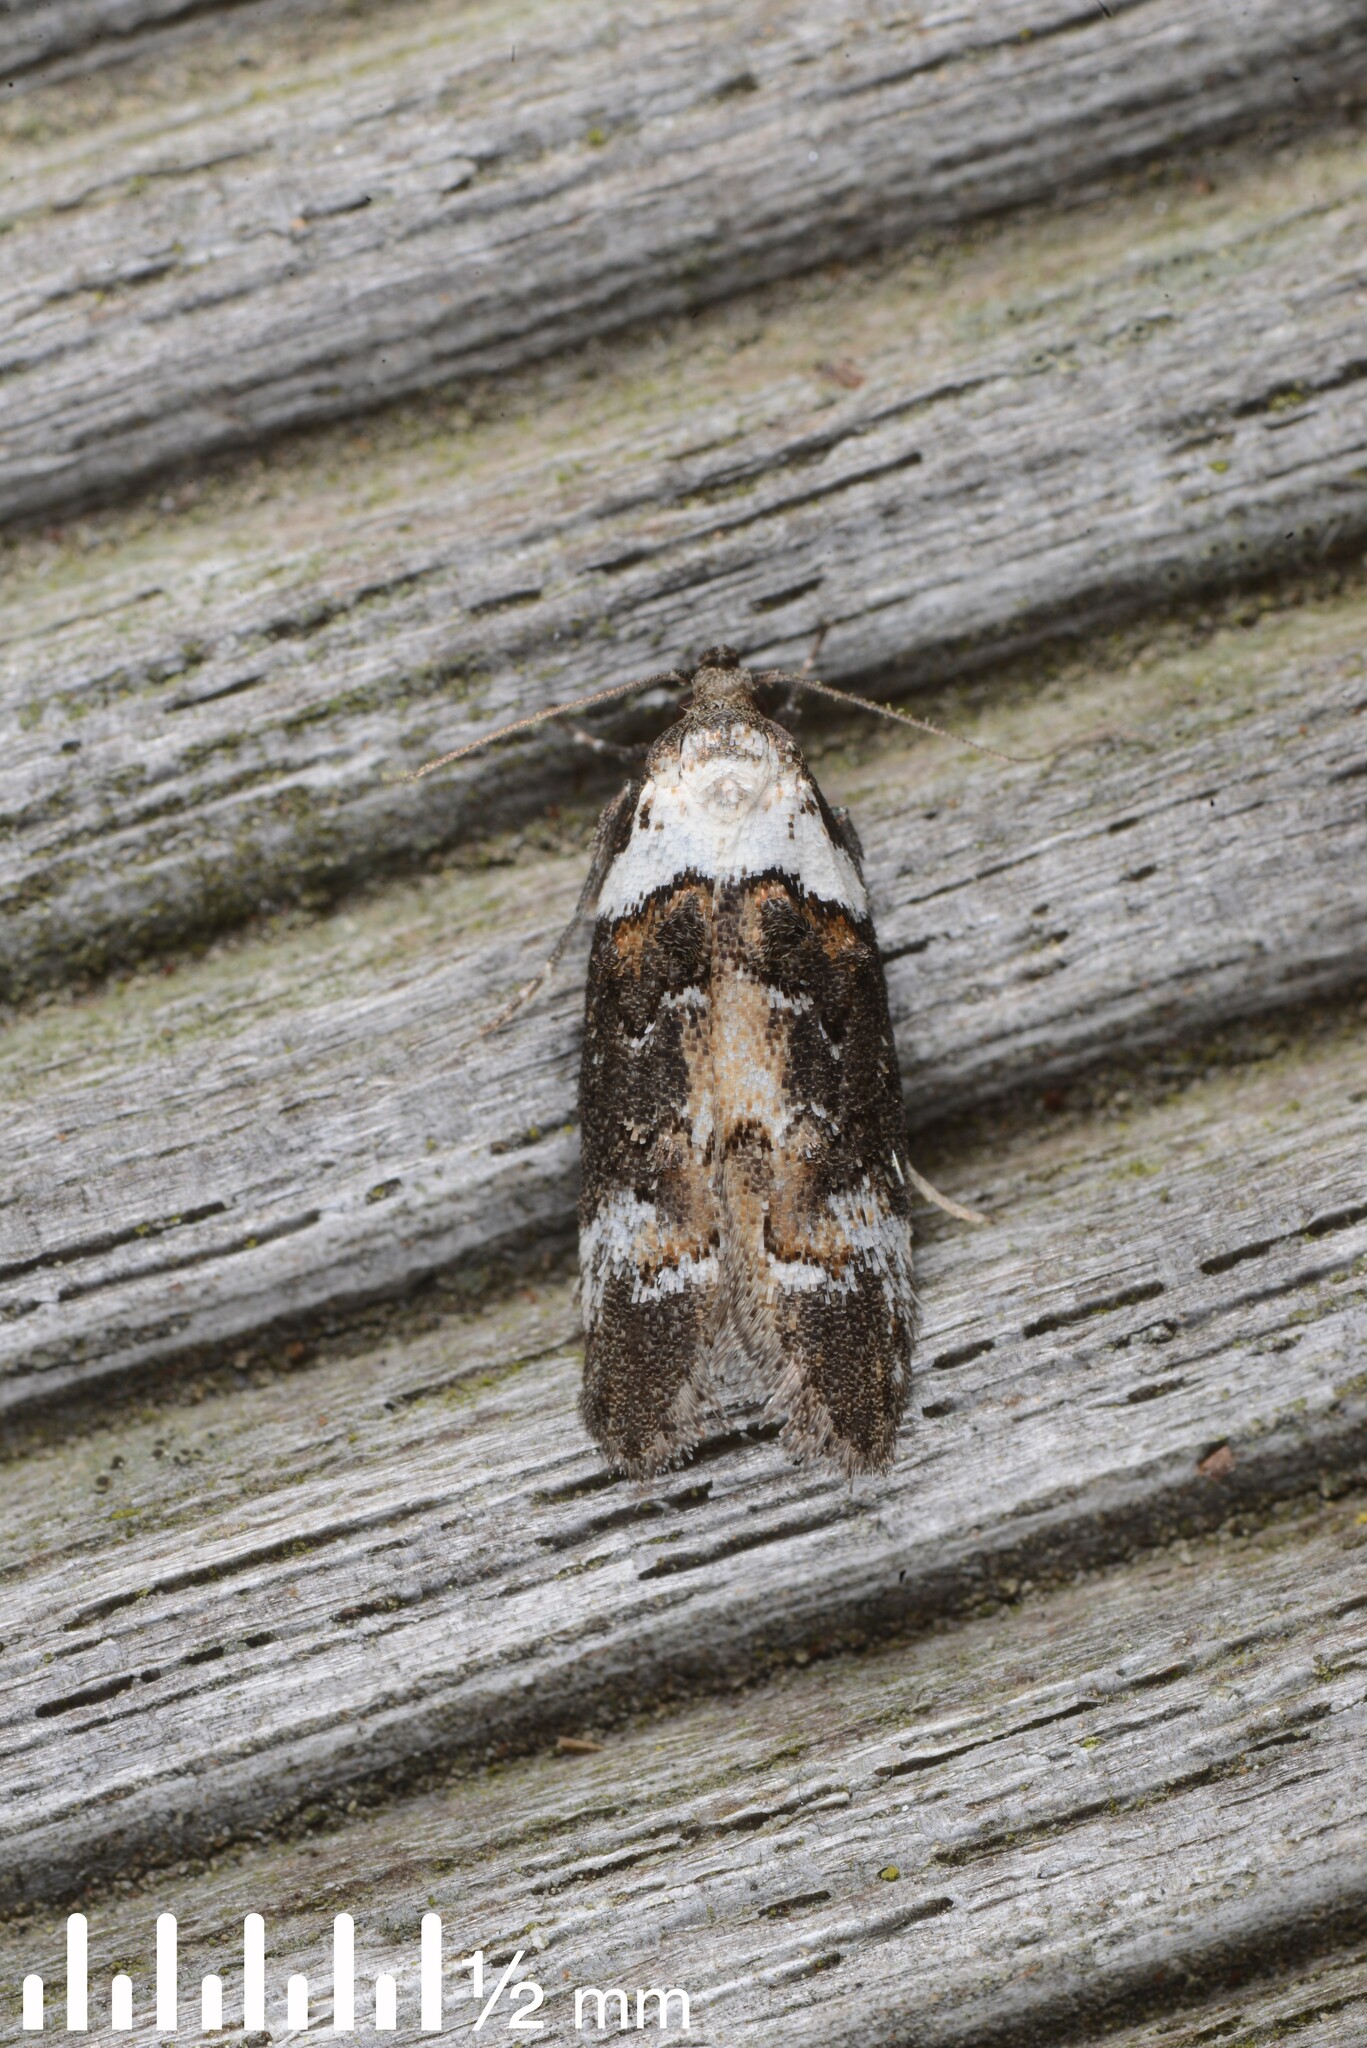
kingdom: Animalia
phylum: Arthropoda
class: Insecta
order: Lepidoptera
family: Oecophoridae
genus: Trachypepla
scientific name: Trachypepla conspicuella
